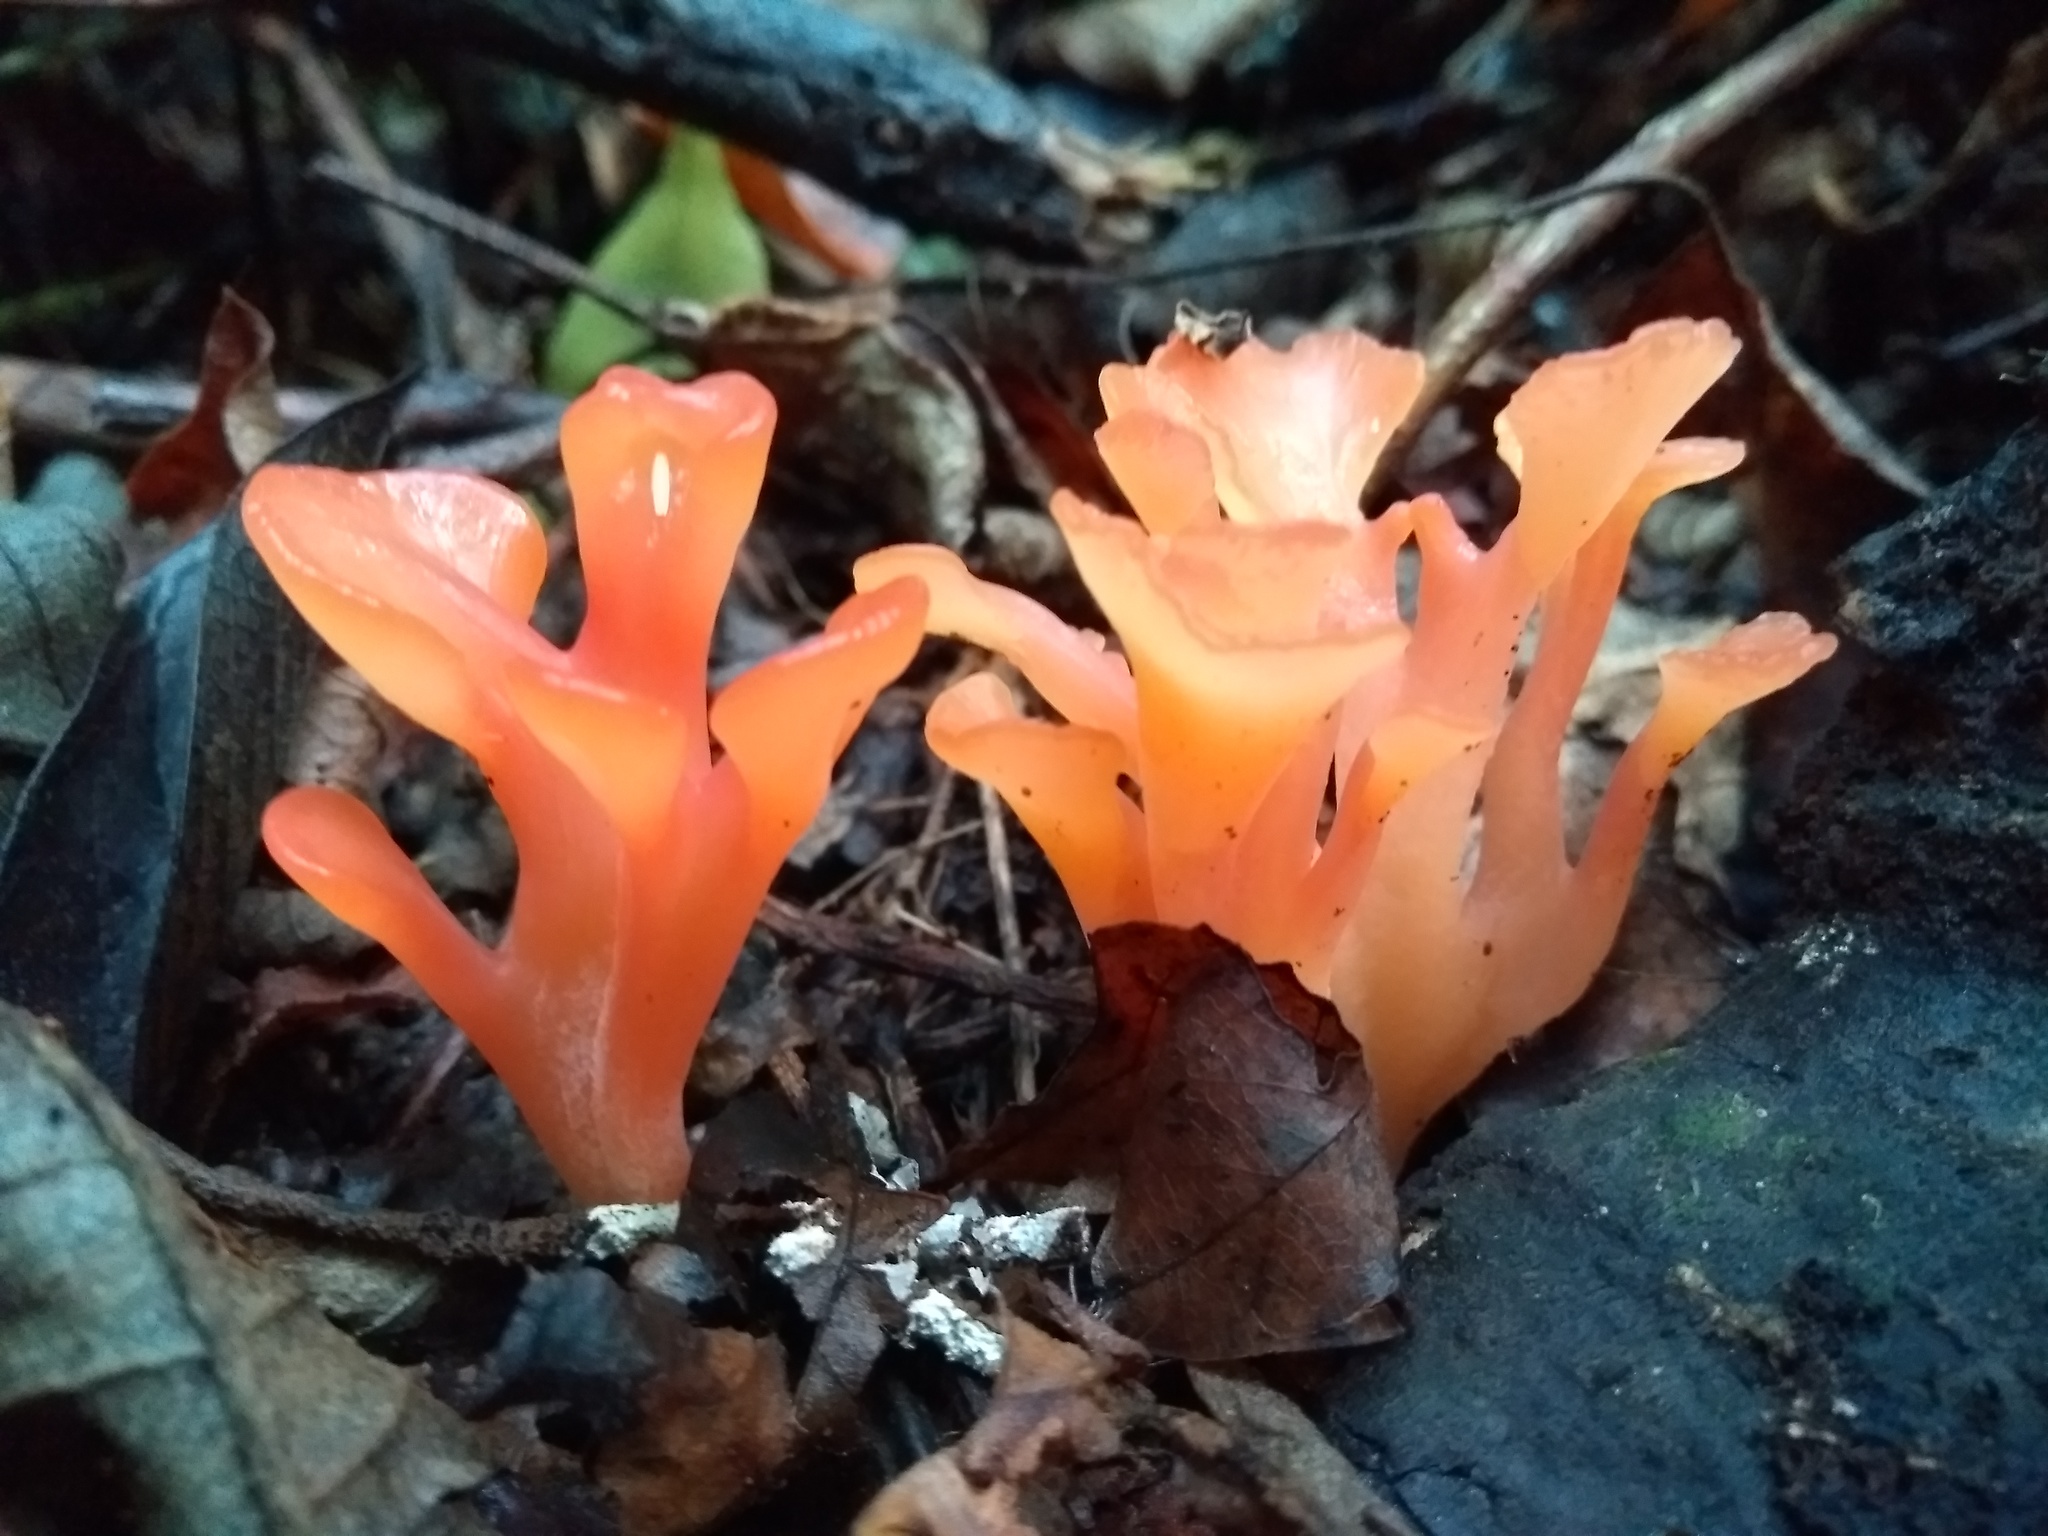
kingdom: Fungi
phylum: Basidiomycota
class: Agaricomycetes
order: Auriculariales
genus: Guepinia
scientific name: Guepinia helvelloides
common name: Salmon salad
